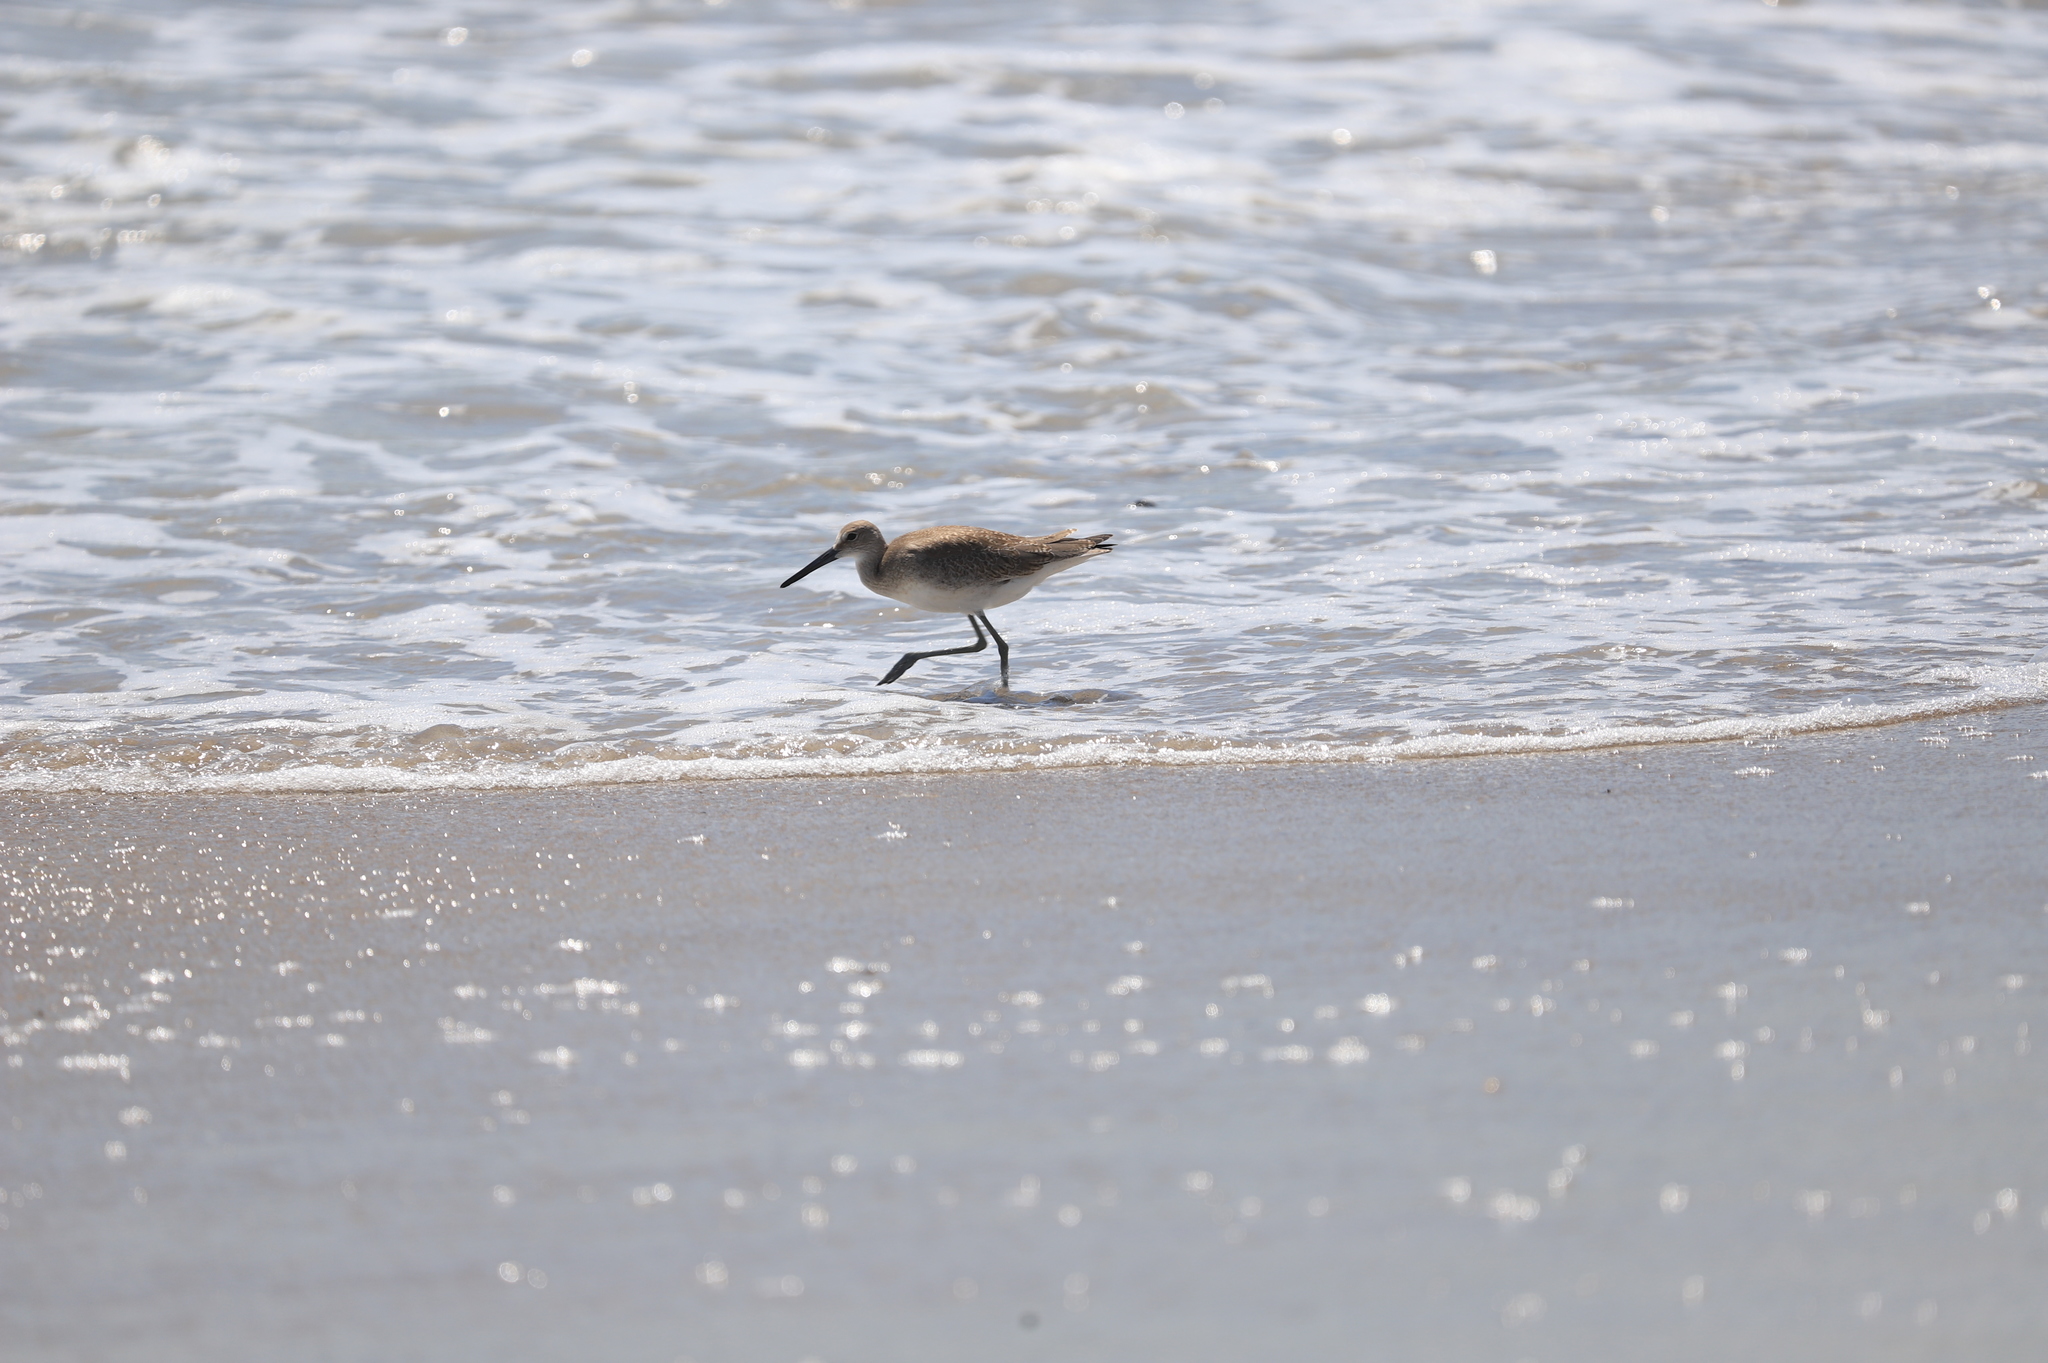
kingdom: Animalia
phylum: Chordata
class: Aves
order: Charadriiformes
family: Scolopacidae
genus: Tringa
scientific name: Tringa semipalmata
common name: Willet
